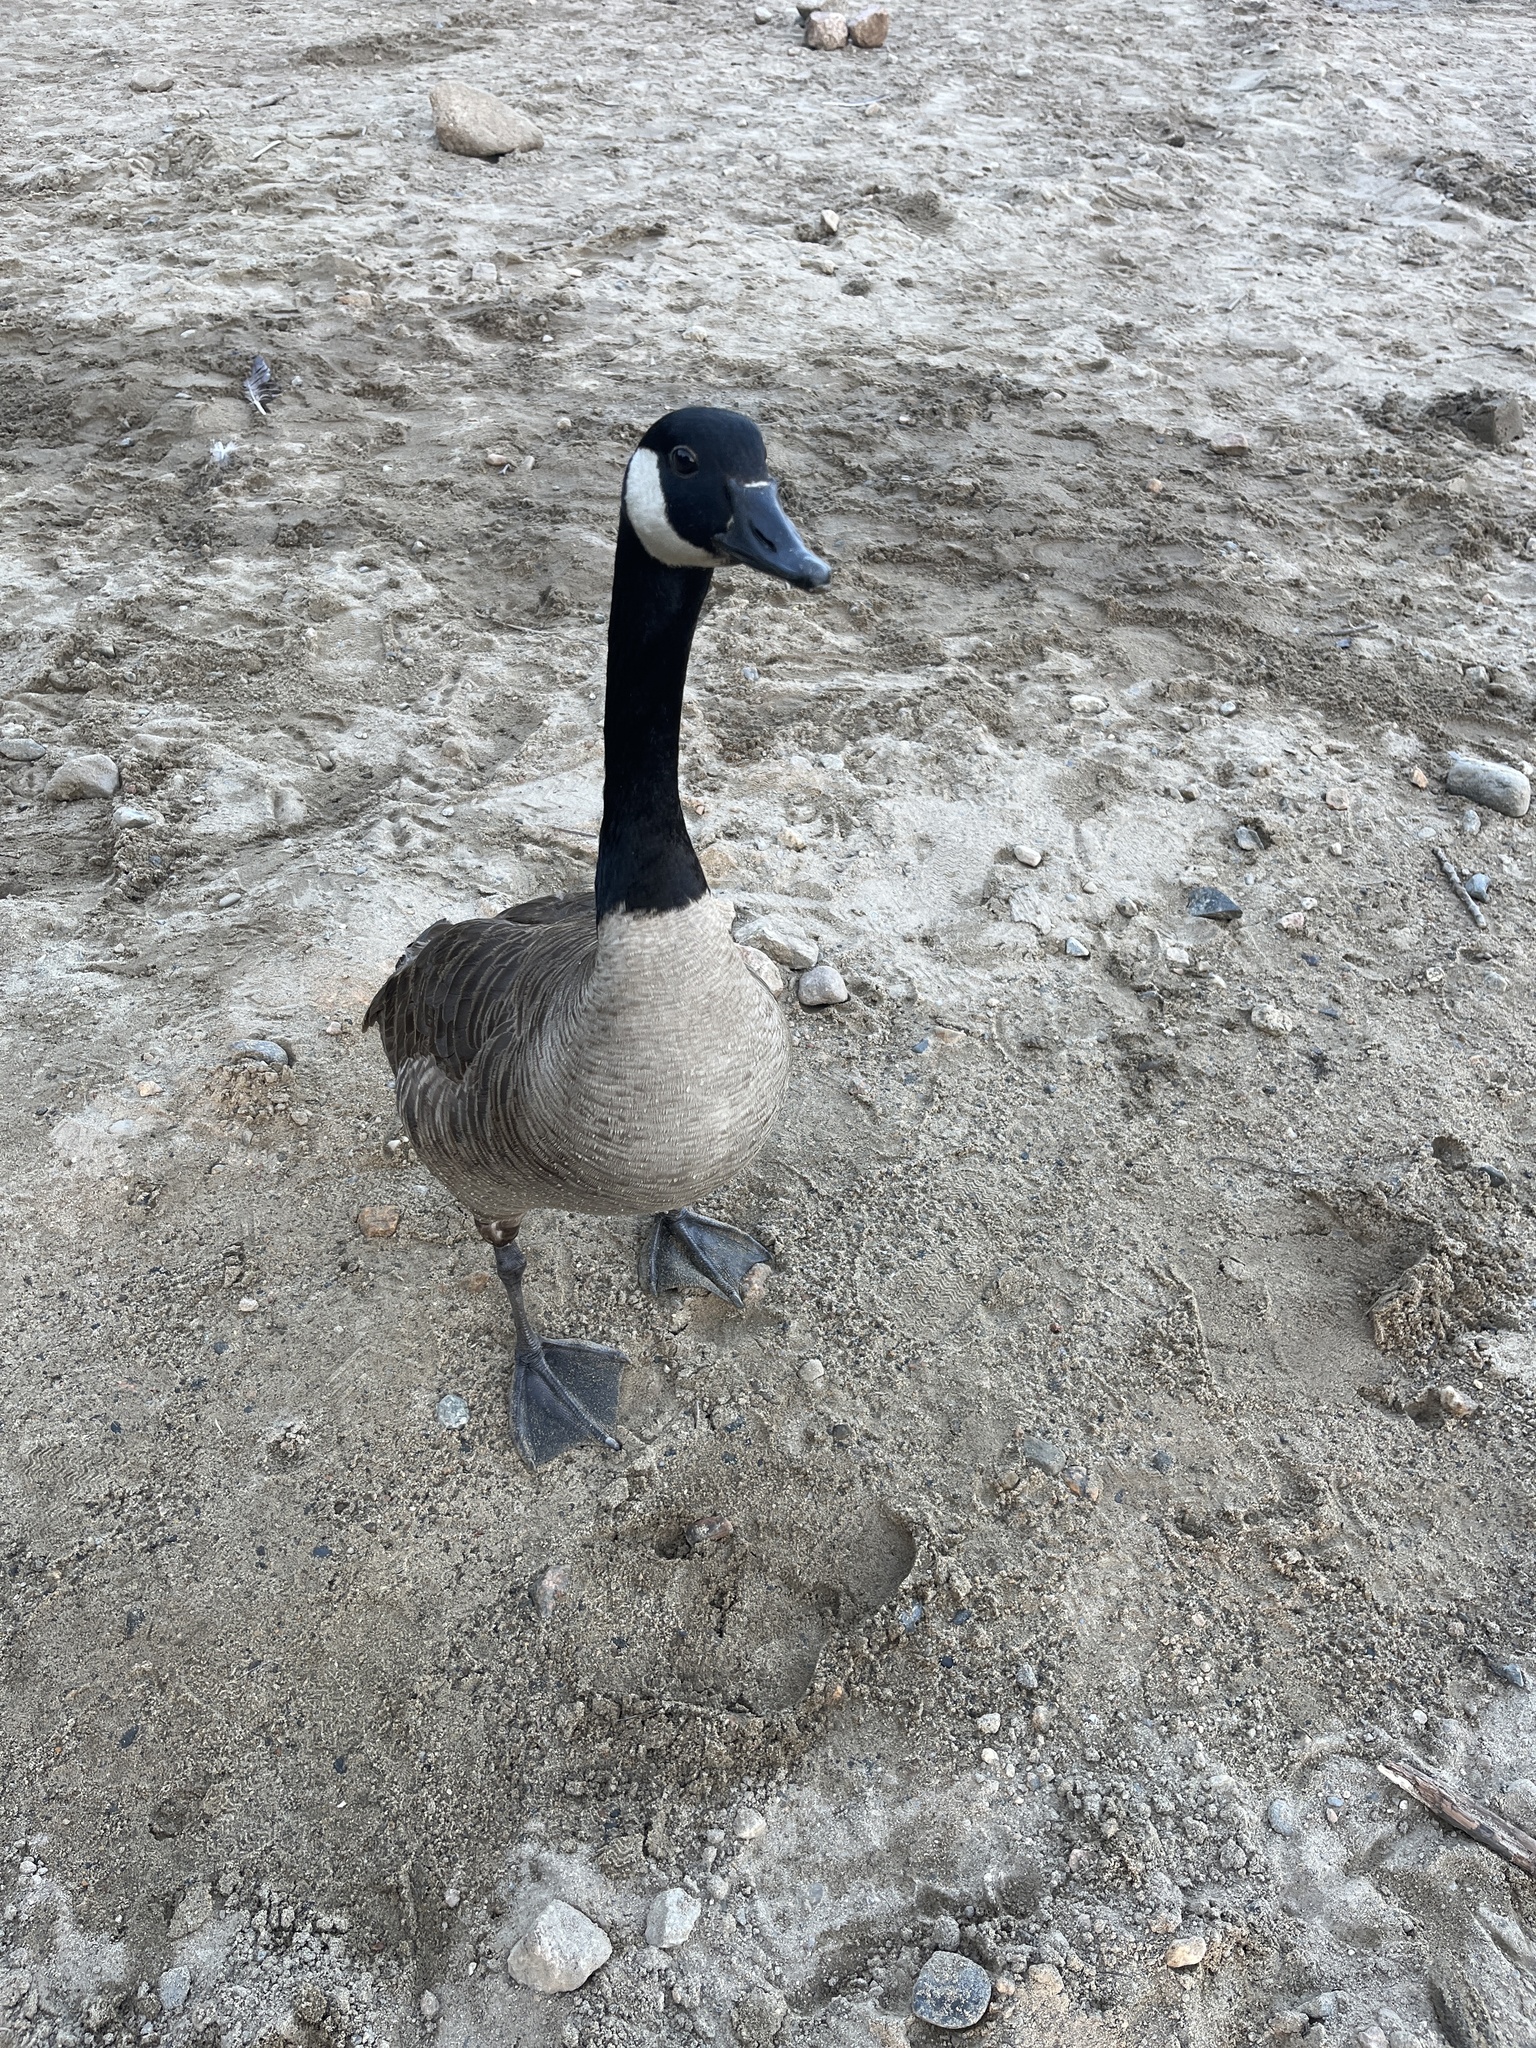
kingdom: Animalia
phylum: Chordata
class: Aves
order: Anseriformes
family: Anatidae
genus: Branta
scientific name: Branta canadensis
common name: Canada goose
